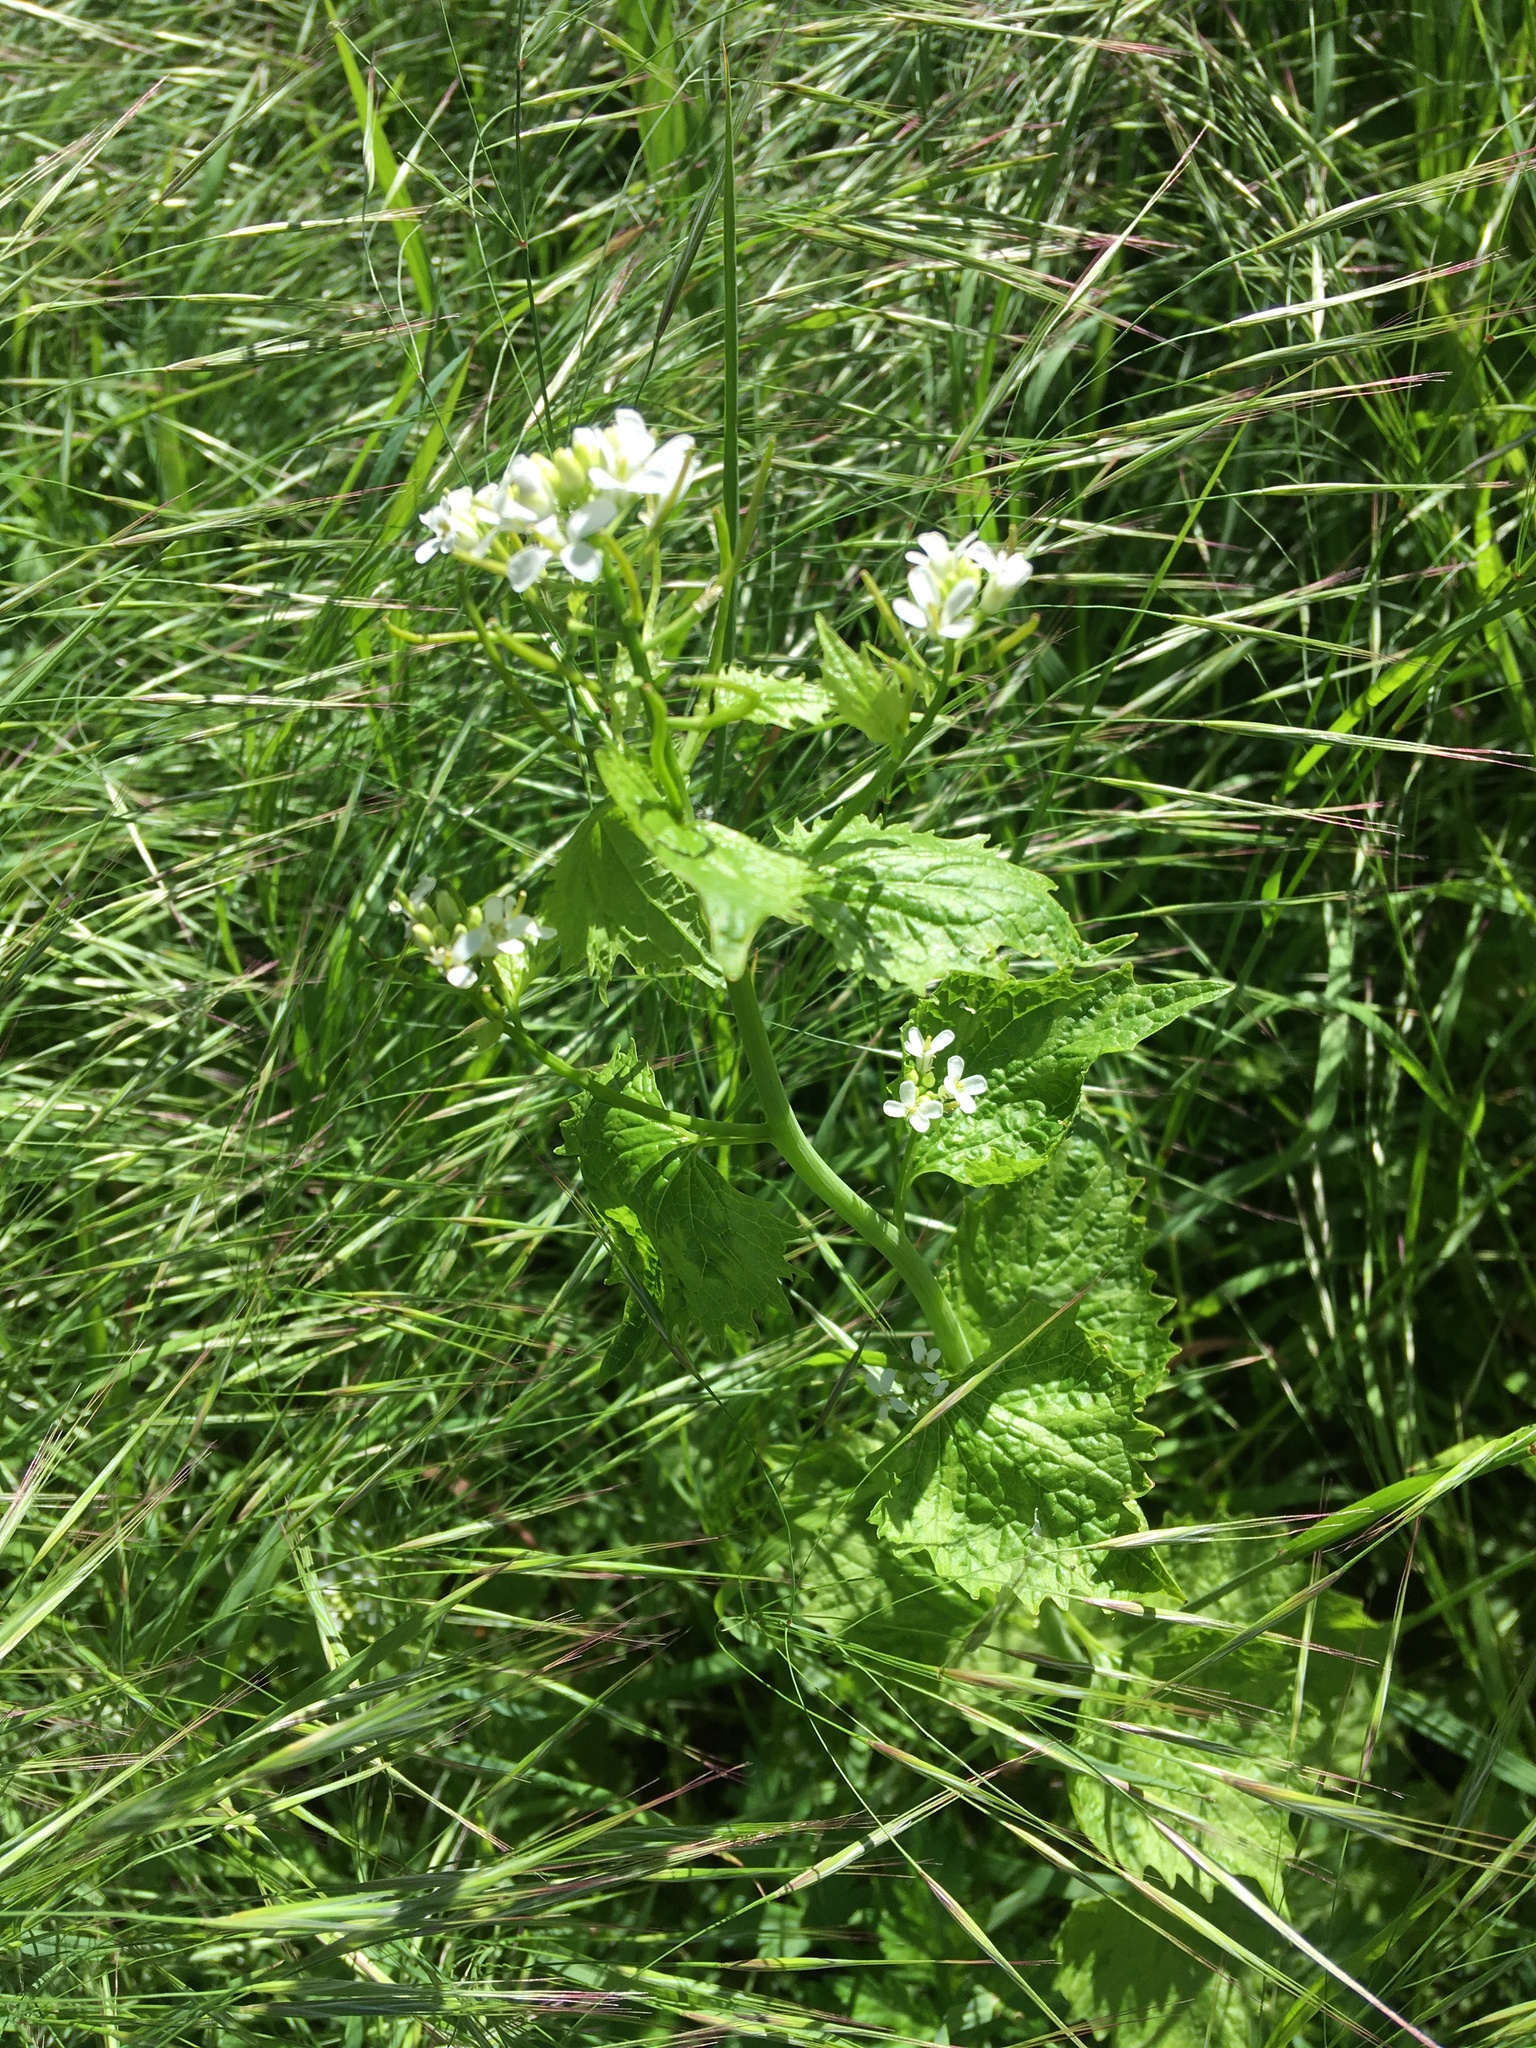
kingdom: Plantae
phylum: Tracheophyta
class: Magnoliopsida
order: Brassicales
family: Brassicaceae
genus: Alliaria
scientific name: Alliaria petiolata
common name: Garlic mustard
